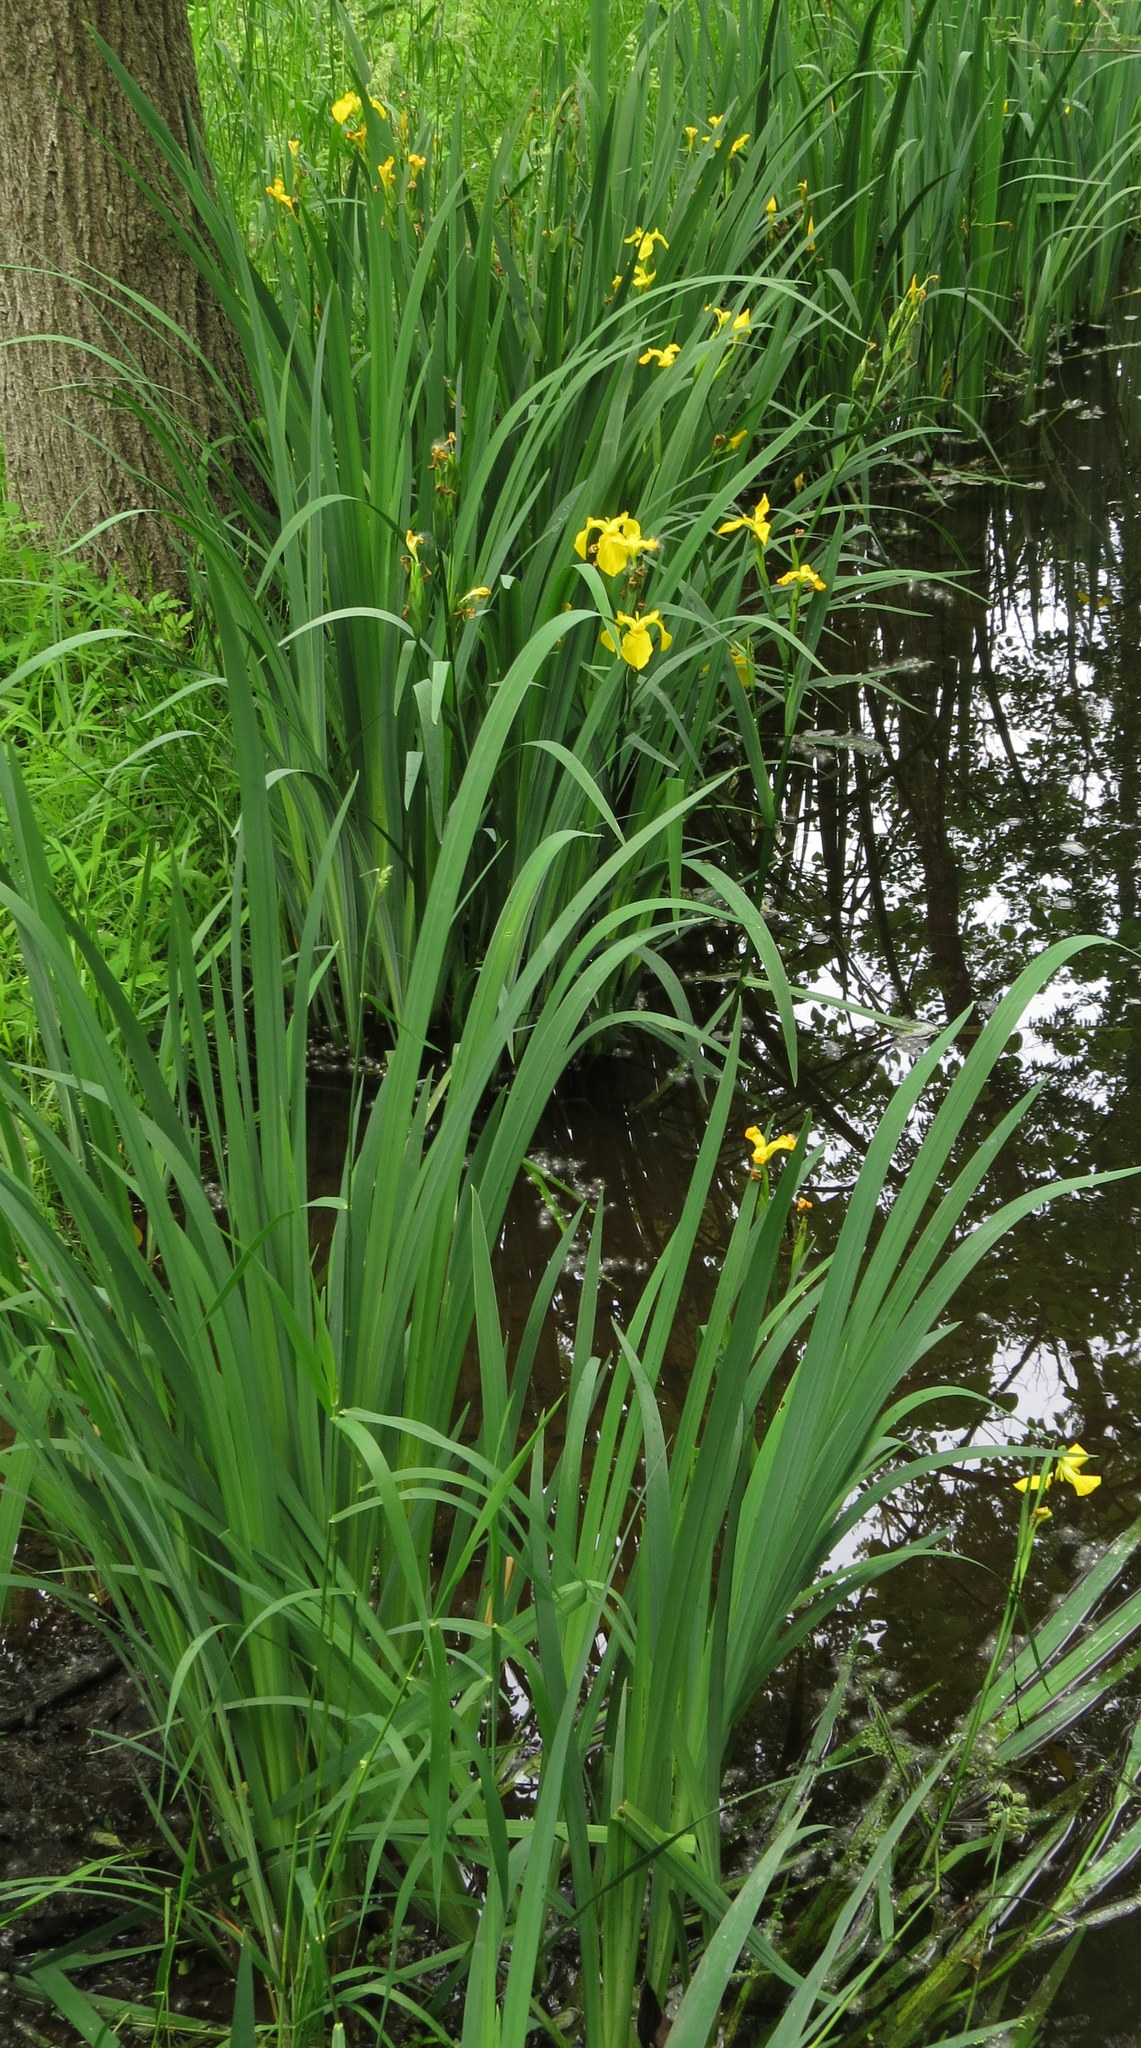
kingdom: Plantae
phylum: Tracheophyta
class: Liliopsida
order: Asparagales
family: Iridaceae
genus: Iris
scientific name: Iris pseudacorus
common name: Yellow flag
